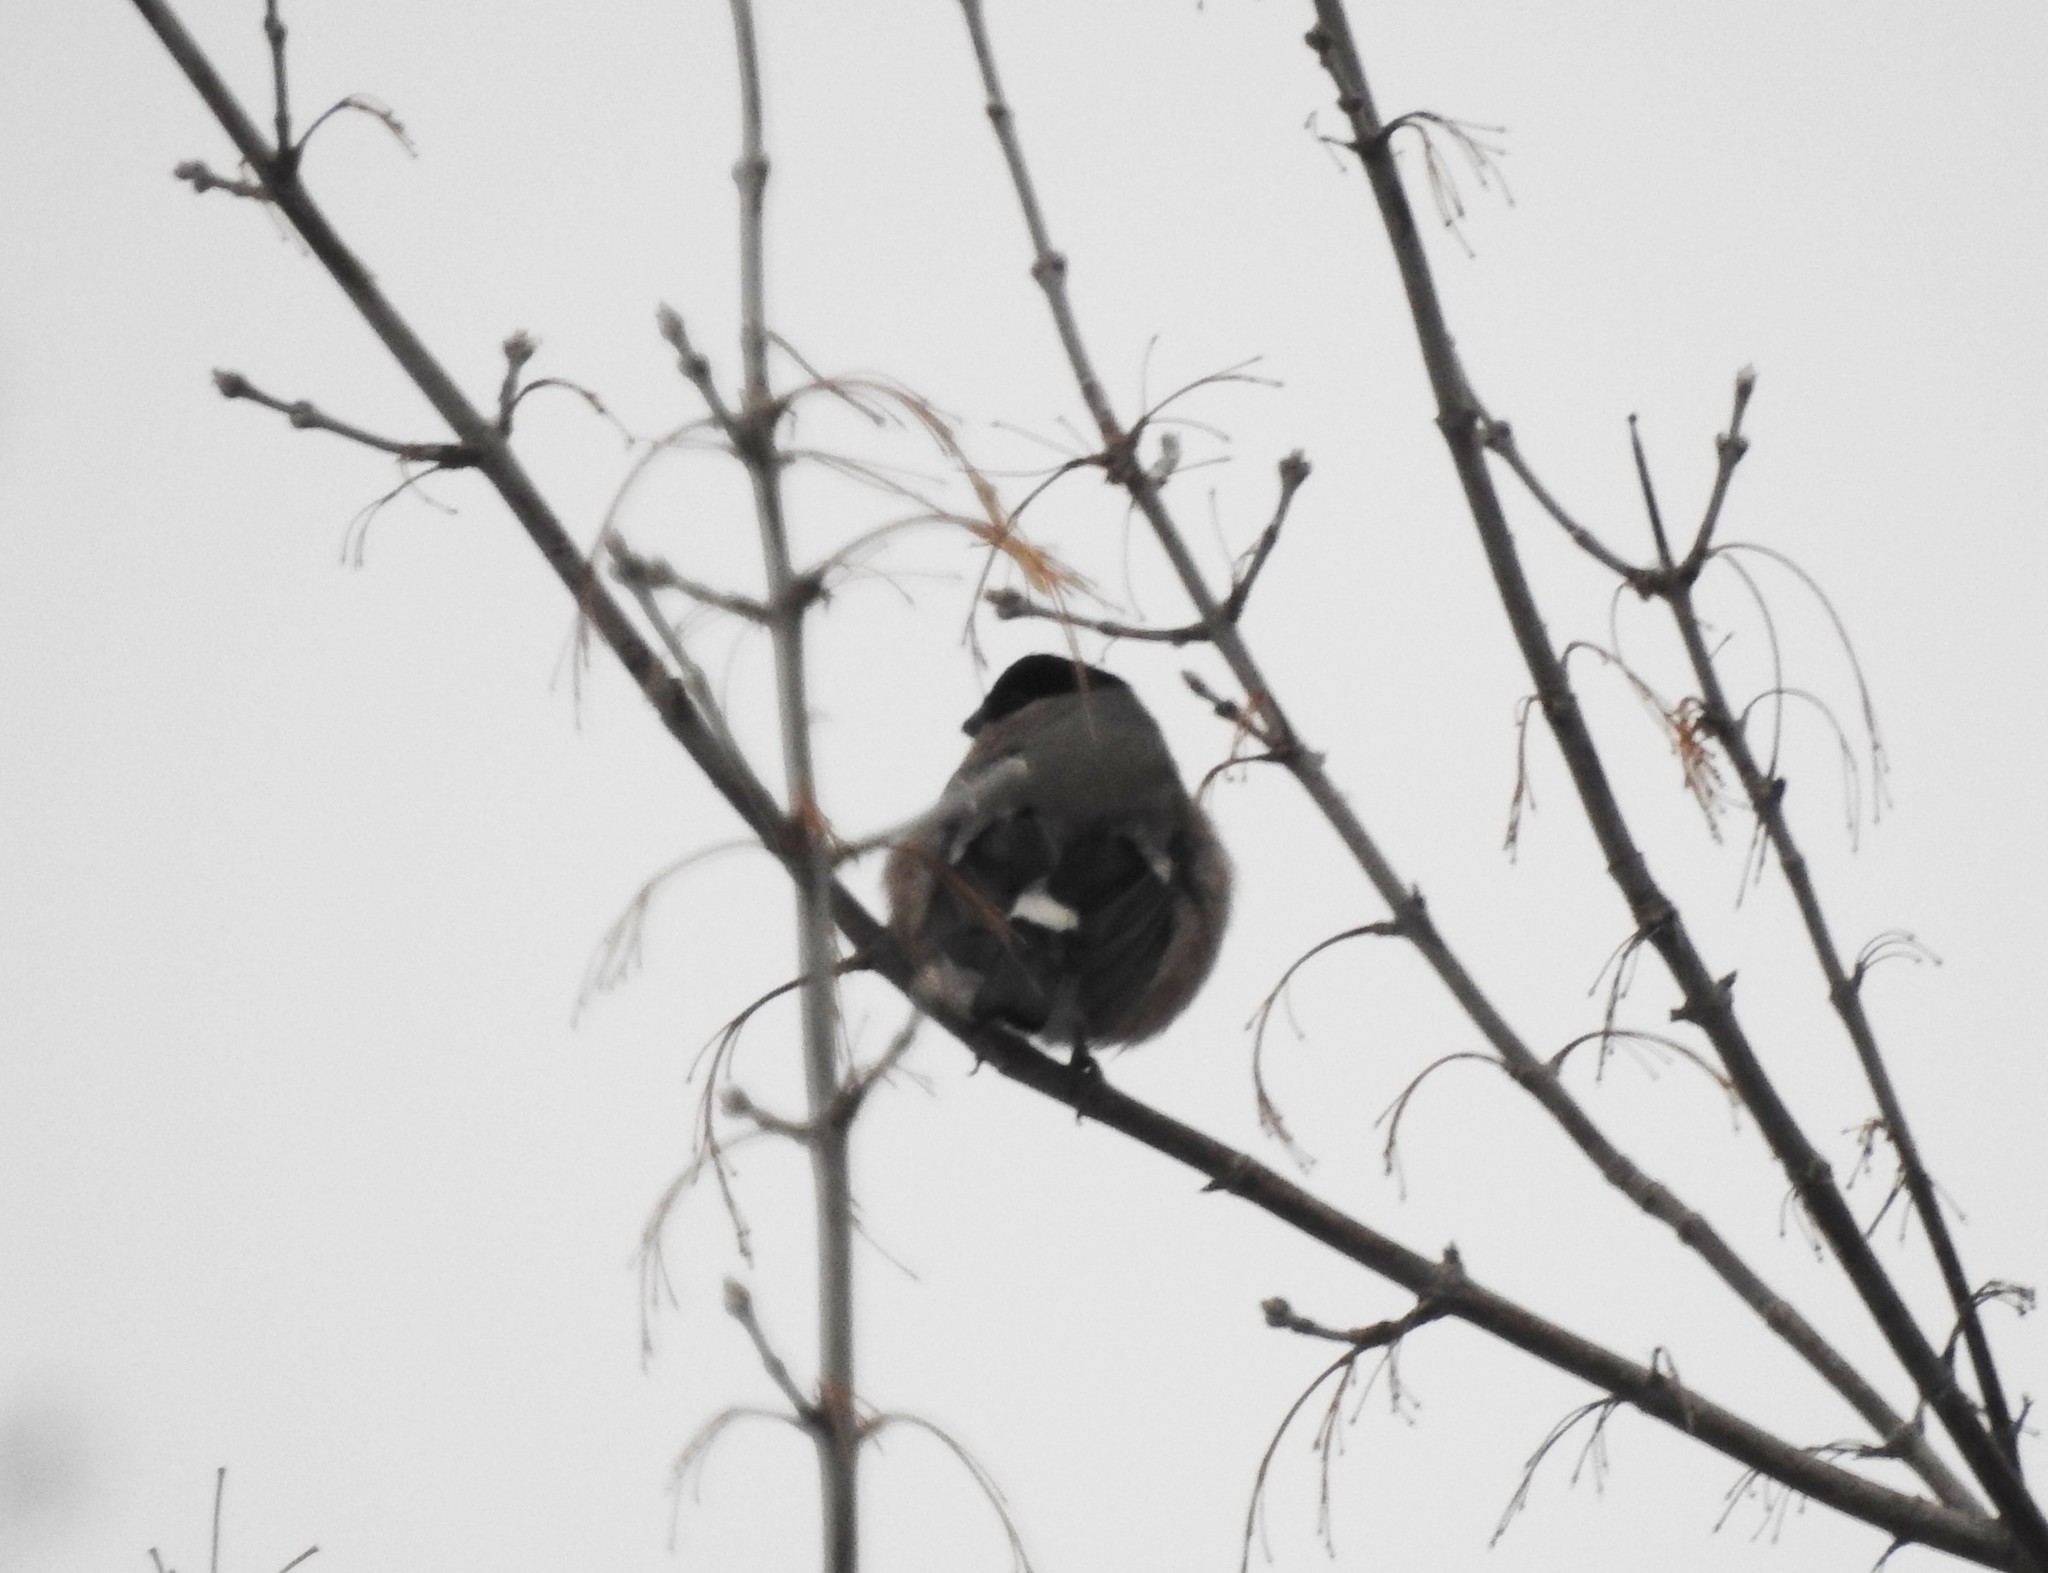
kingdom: Animalia
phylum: Chordata
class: Aves
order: Passeriformes
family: Fringillidae
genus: Pyrrhula
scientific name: Pyrrhula pyrrhula
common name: Eurasian bullfinch
